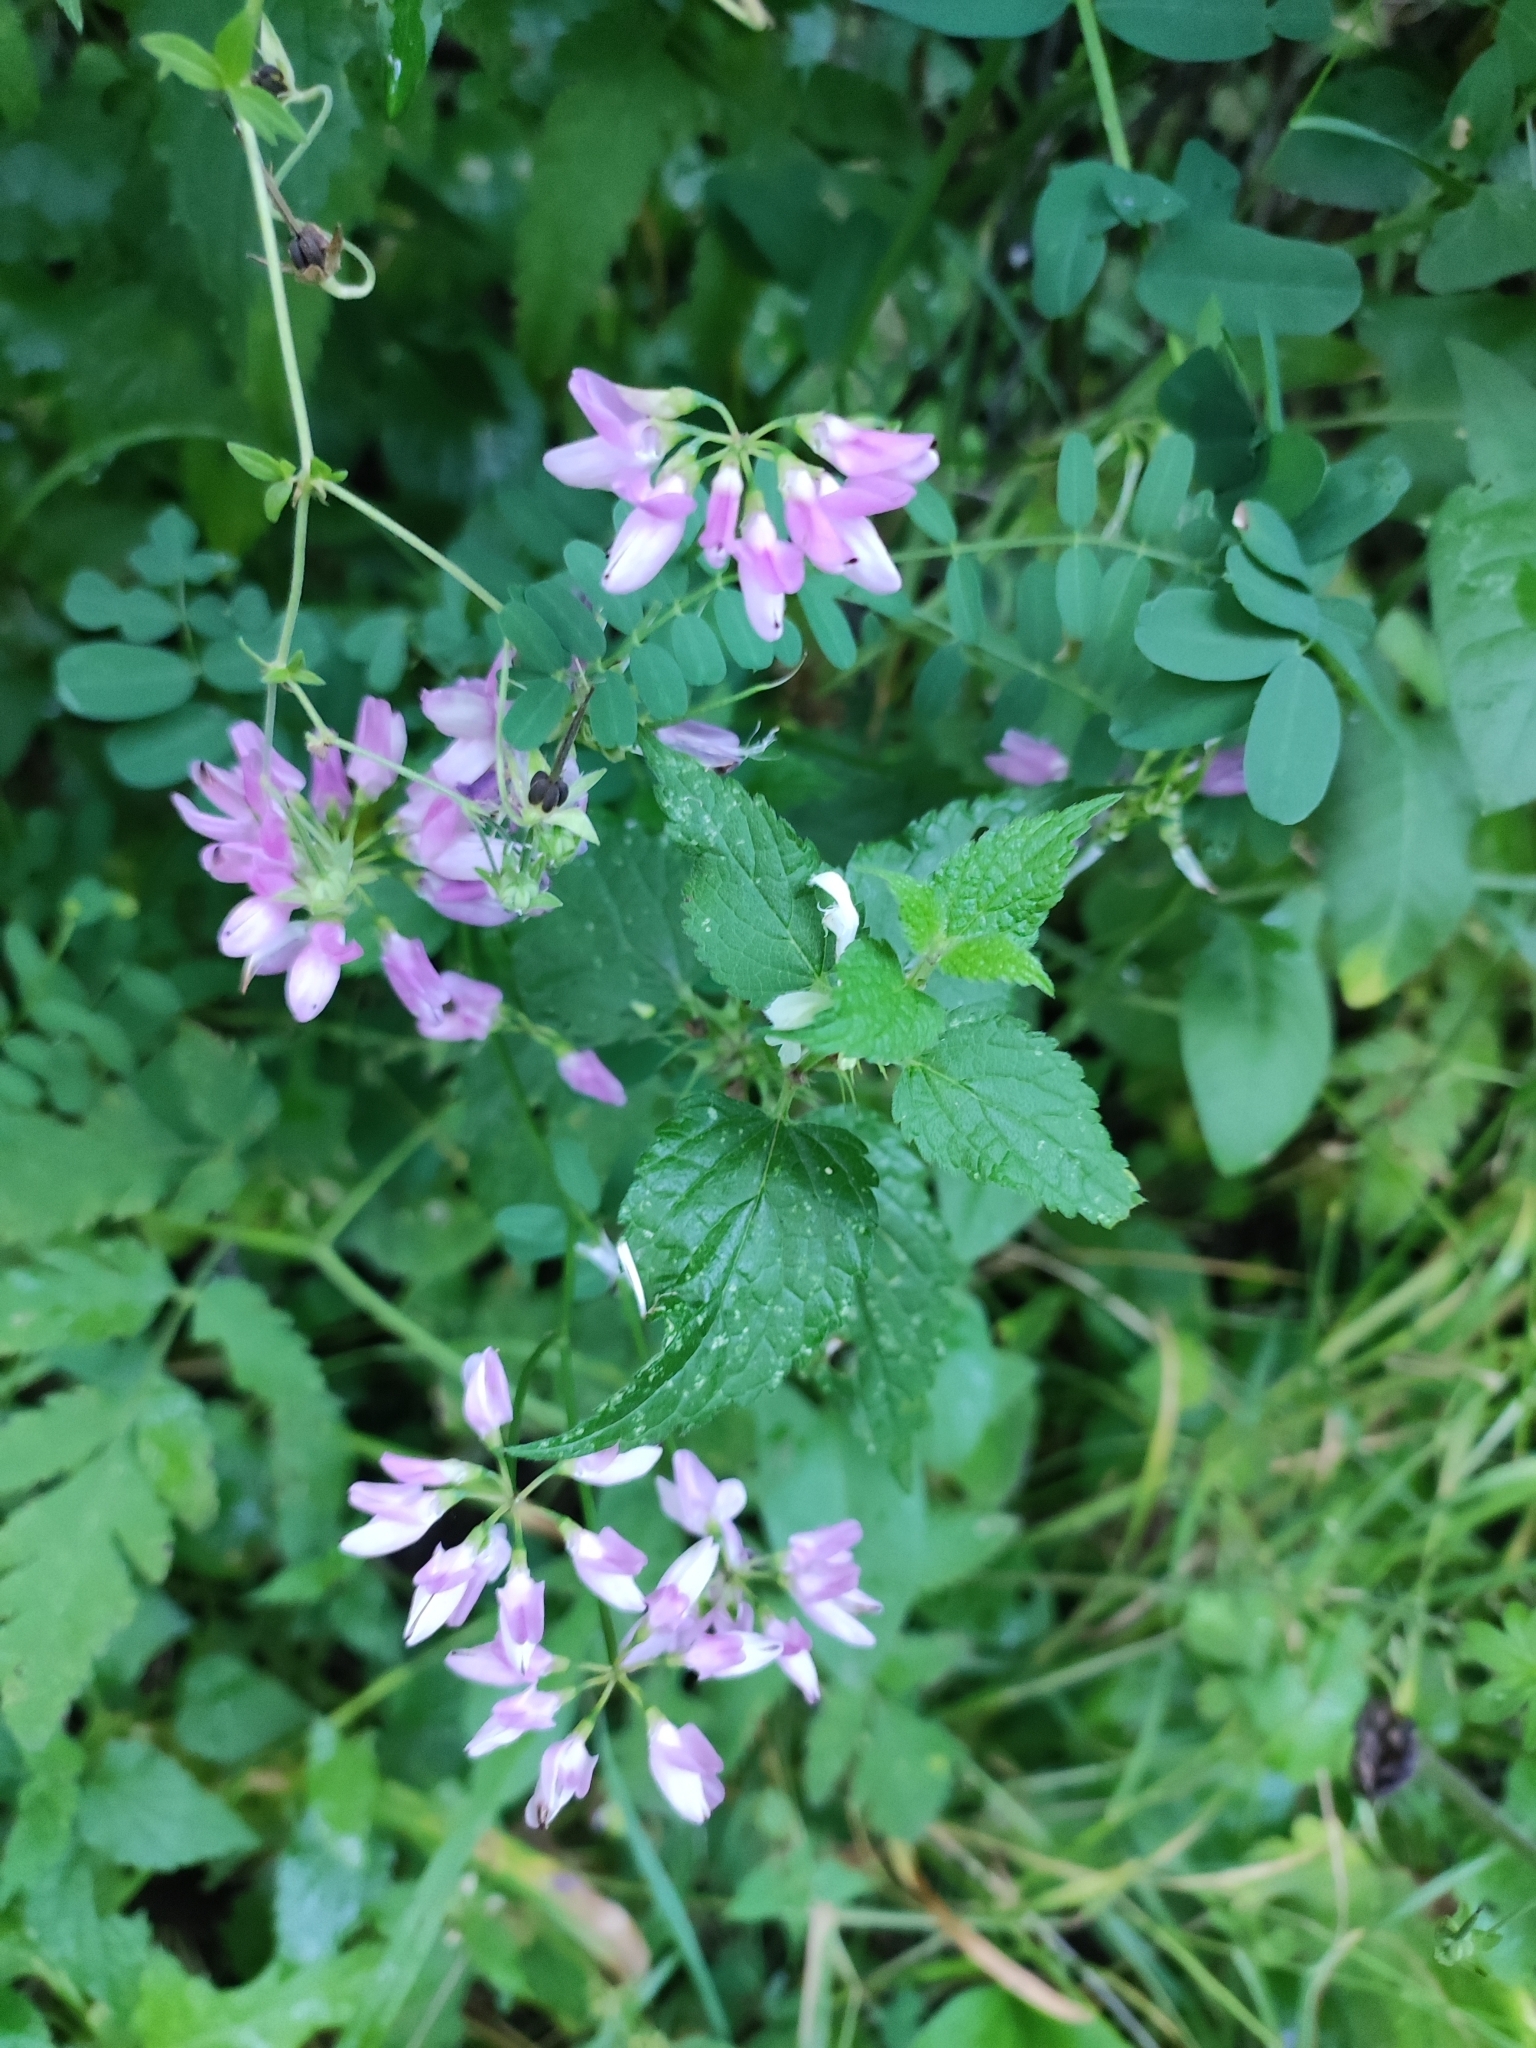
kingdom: Plantae
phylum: Tracheophyta
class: Magnoliopsida
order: Fabales
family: Fabaceae
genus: Coronilla
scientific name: Coronilla varia
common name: Crownvetch
